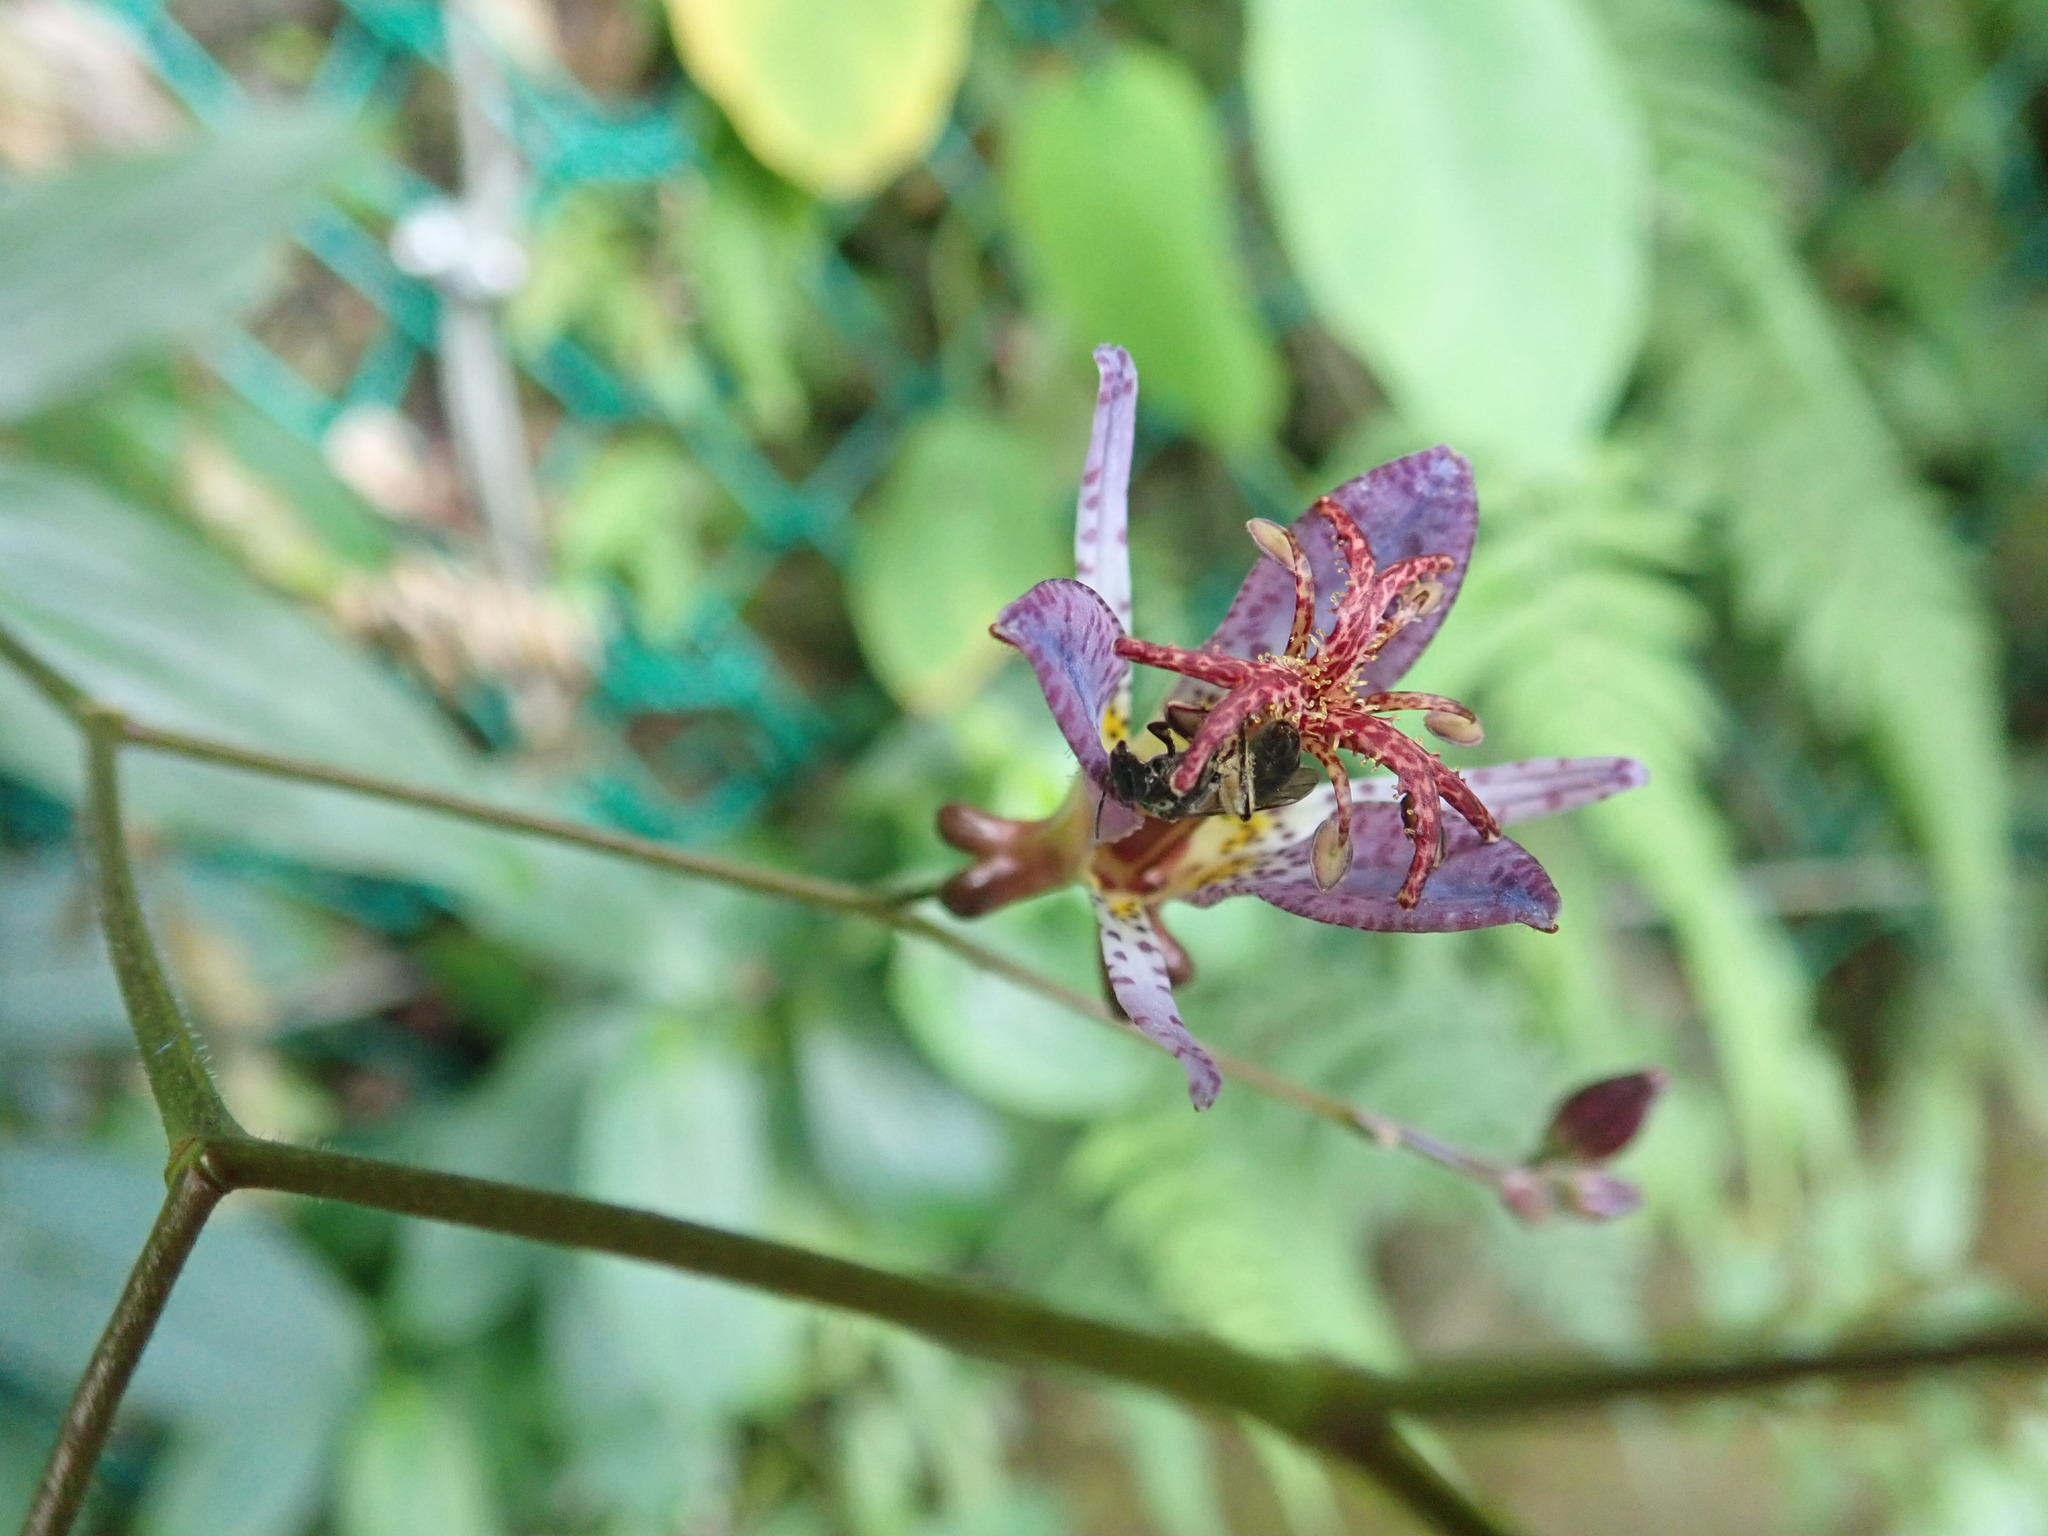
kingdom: Plantae
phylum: Tracheophyta
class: Liliopsida
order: Liliales
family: Liliaceae
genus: Tricyrtis
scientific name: Tricyrtis formosana
